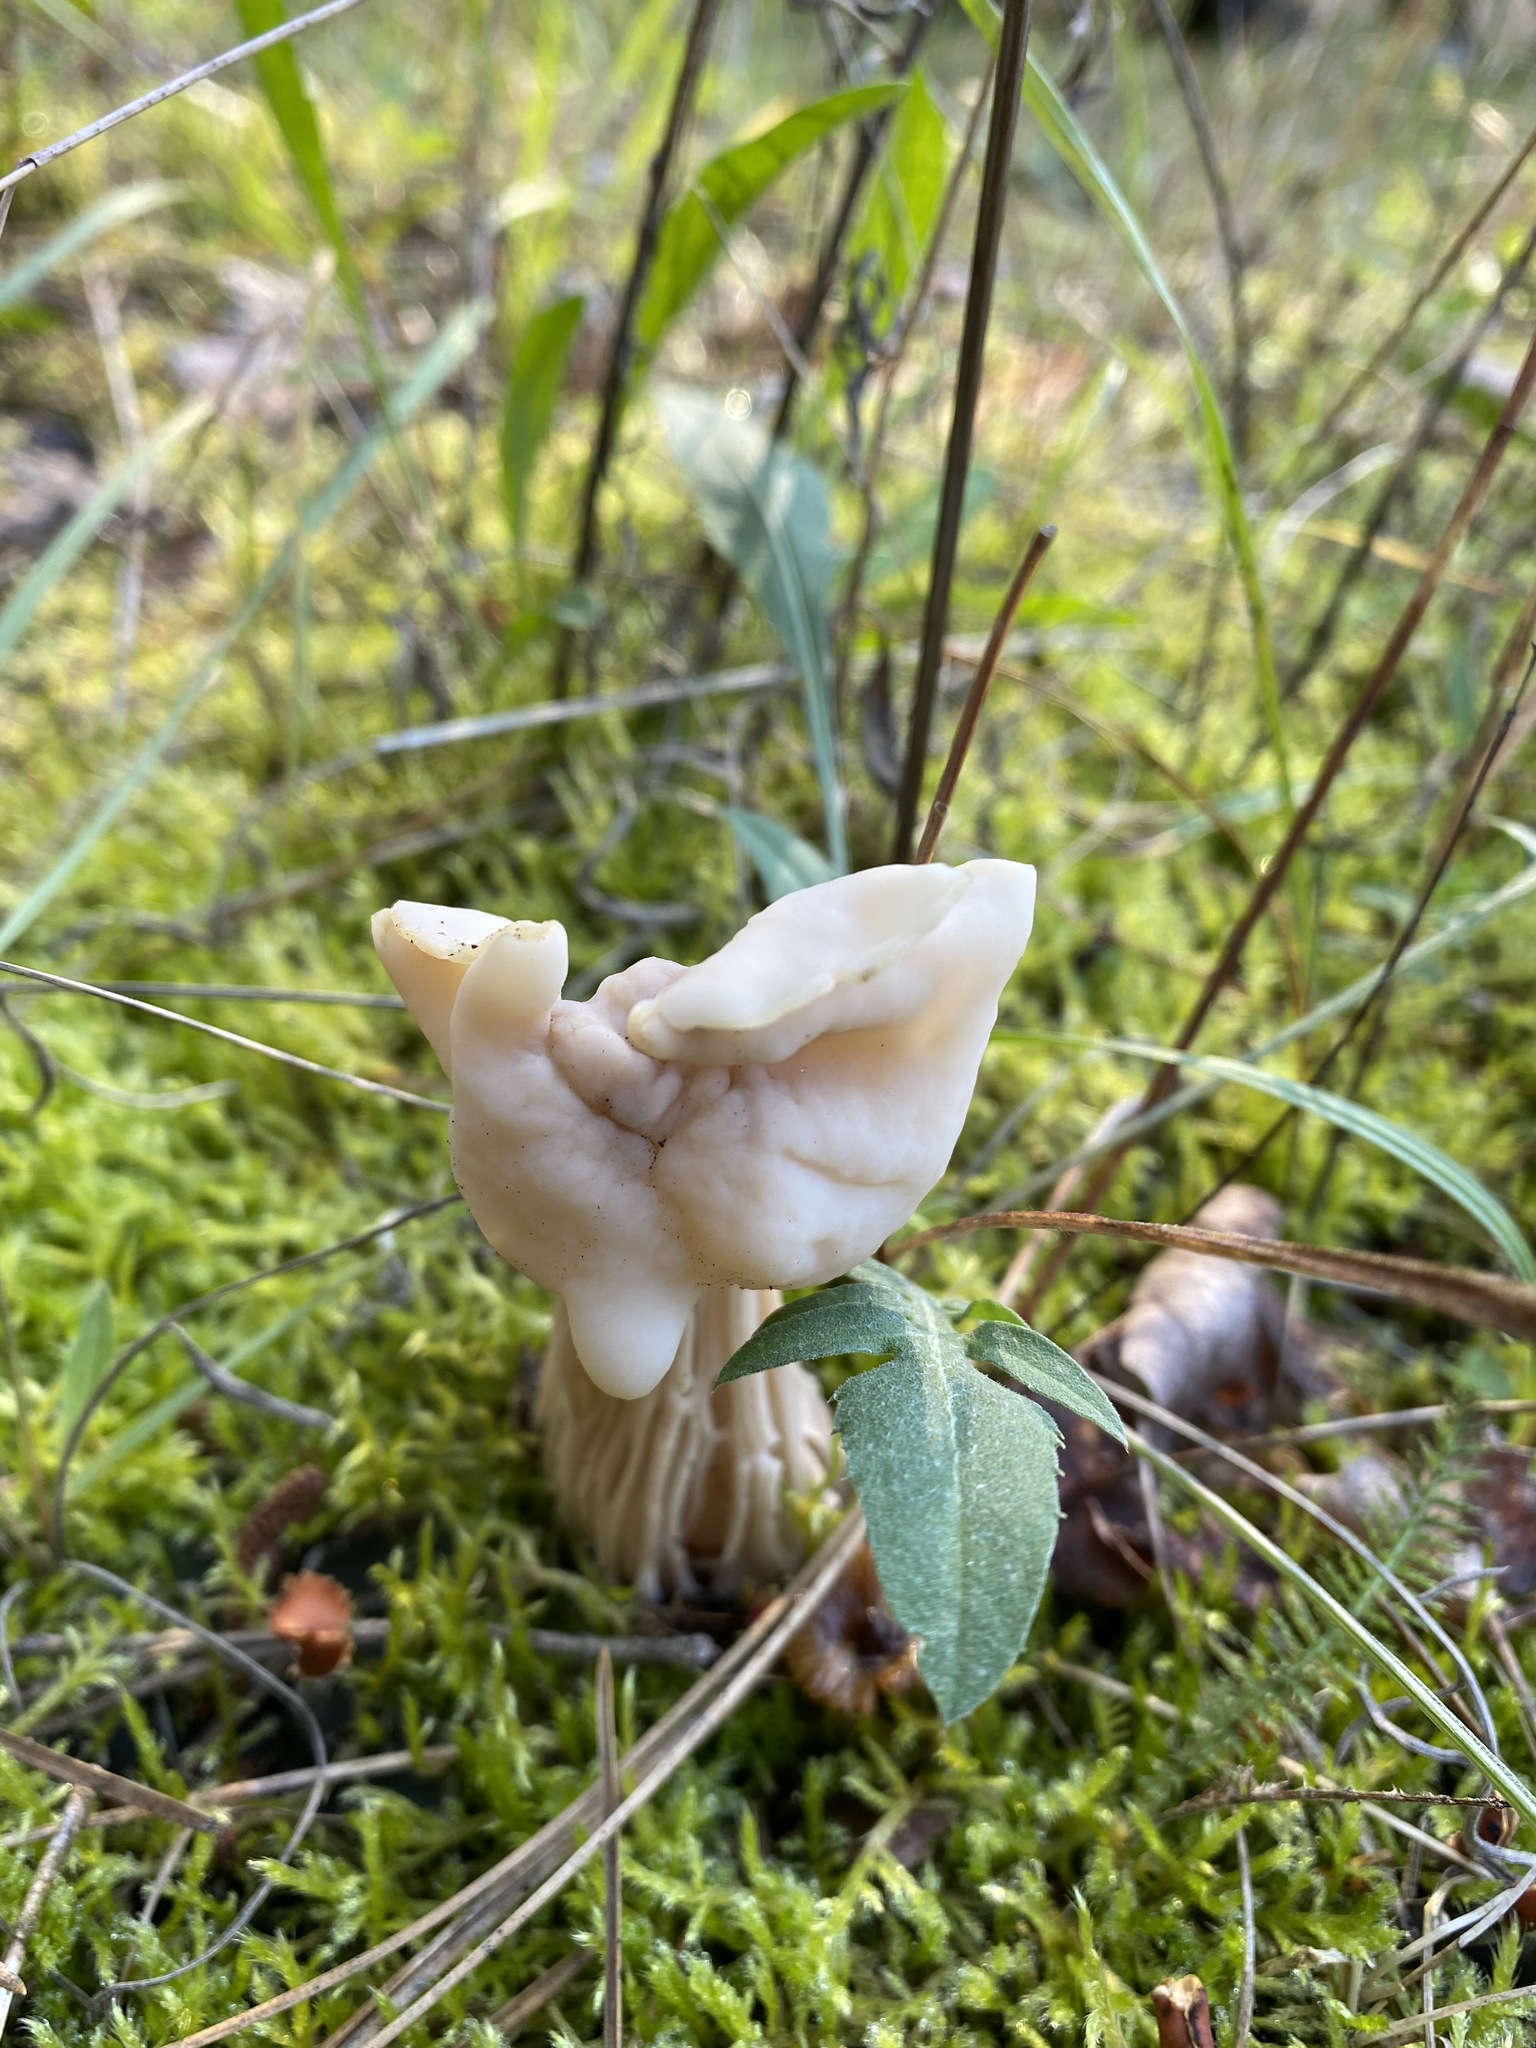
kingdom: Fungi
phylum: Ascomycota
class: Pezizomycetes
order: Pezizales
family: Helvellaceae
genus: Helvella
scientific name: Helvella crispa
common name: White saddle
